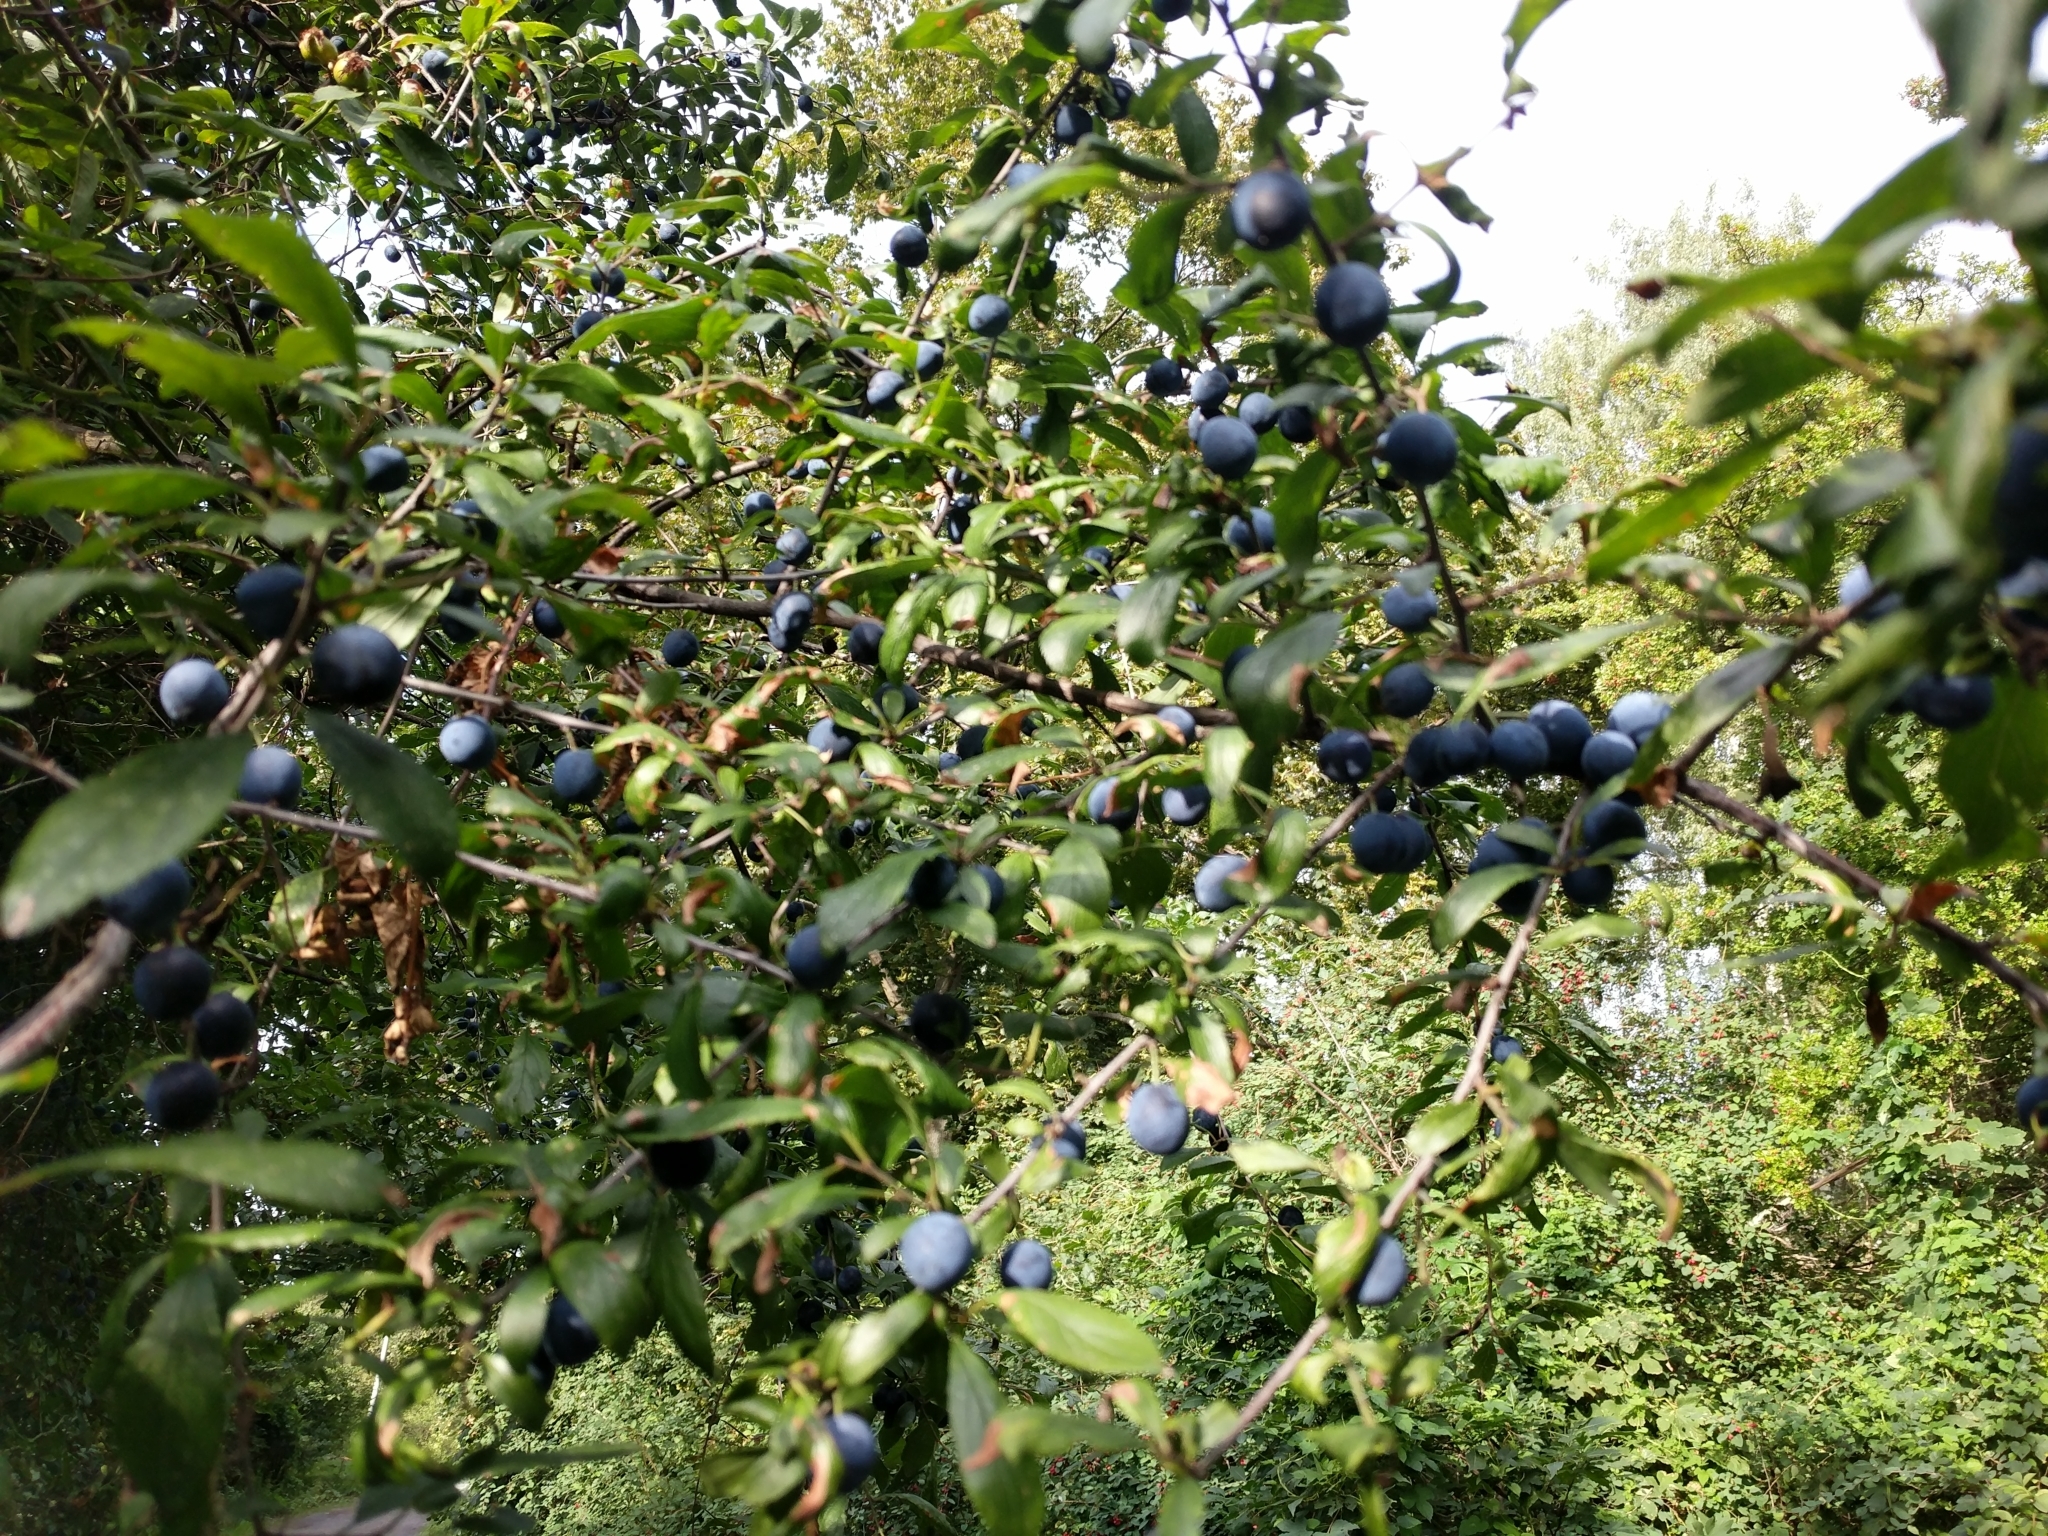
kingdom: Plantae
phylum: Tracheophyta
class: Magnoliopsida
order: Rosales
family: Rosaceae
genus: Prunus
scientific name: Prunus domestica
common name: Wild plum
